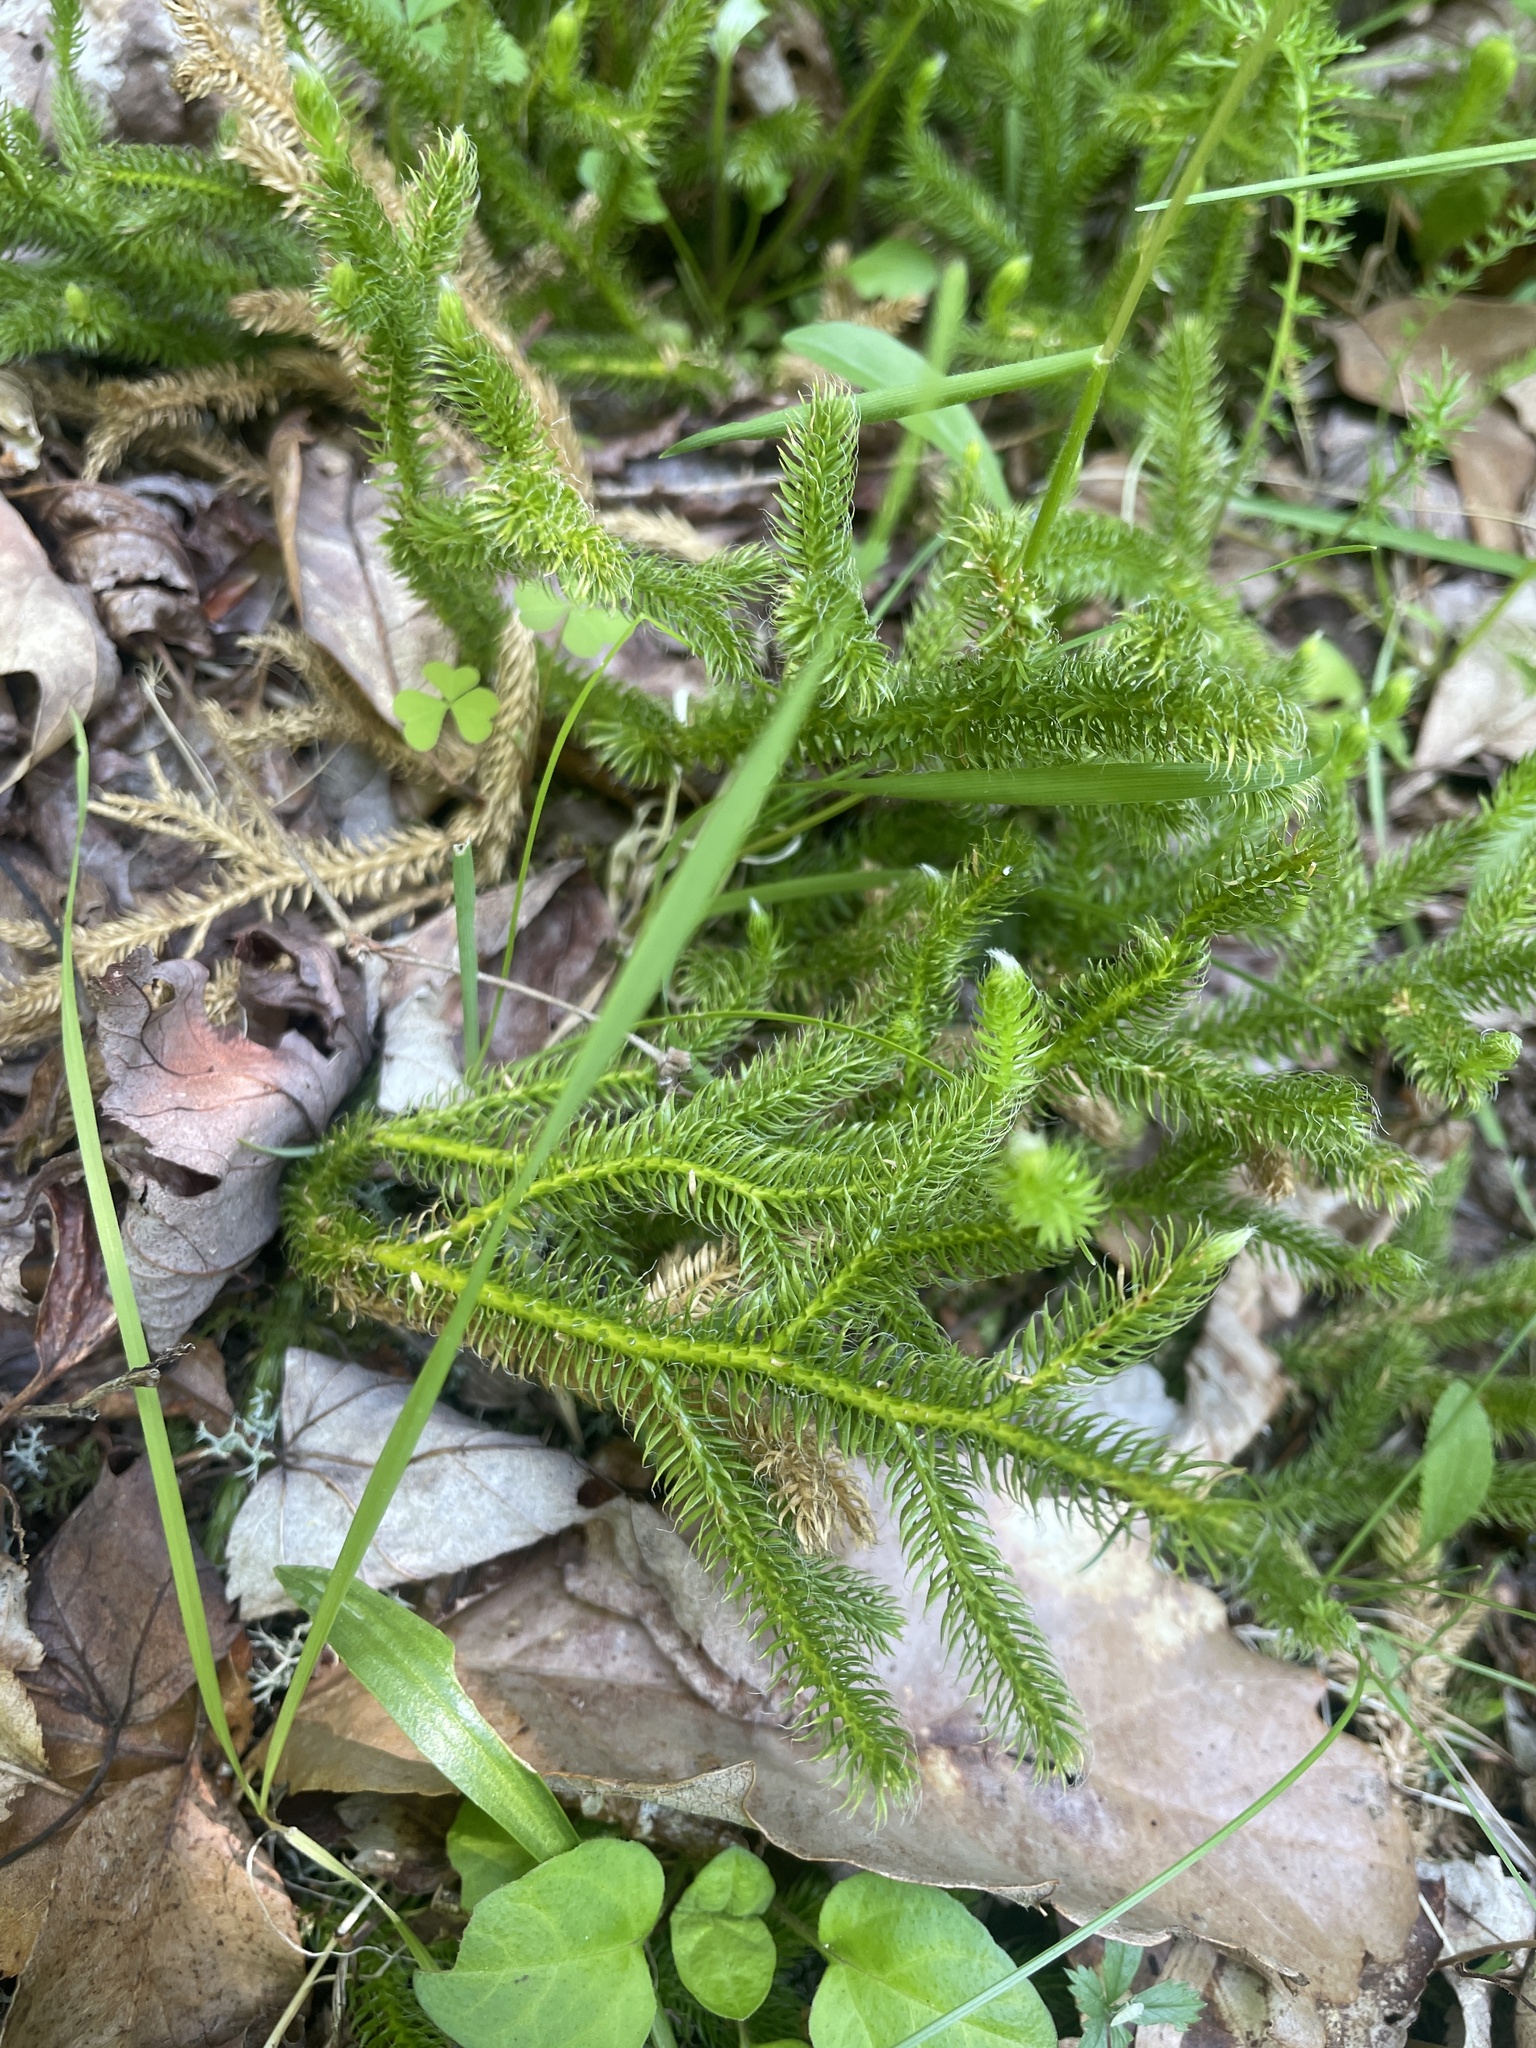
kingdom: Plantae
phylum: Tracheophyta
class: Lycopodiopsida
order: Lycopodiales
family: Lycopodiaceae
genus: Lycopodium
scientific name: Lycopodium clavatum
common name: Stag's-horn clubmoss
